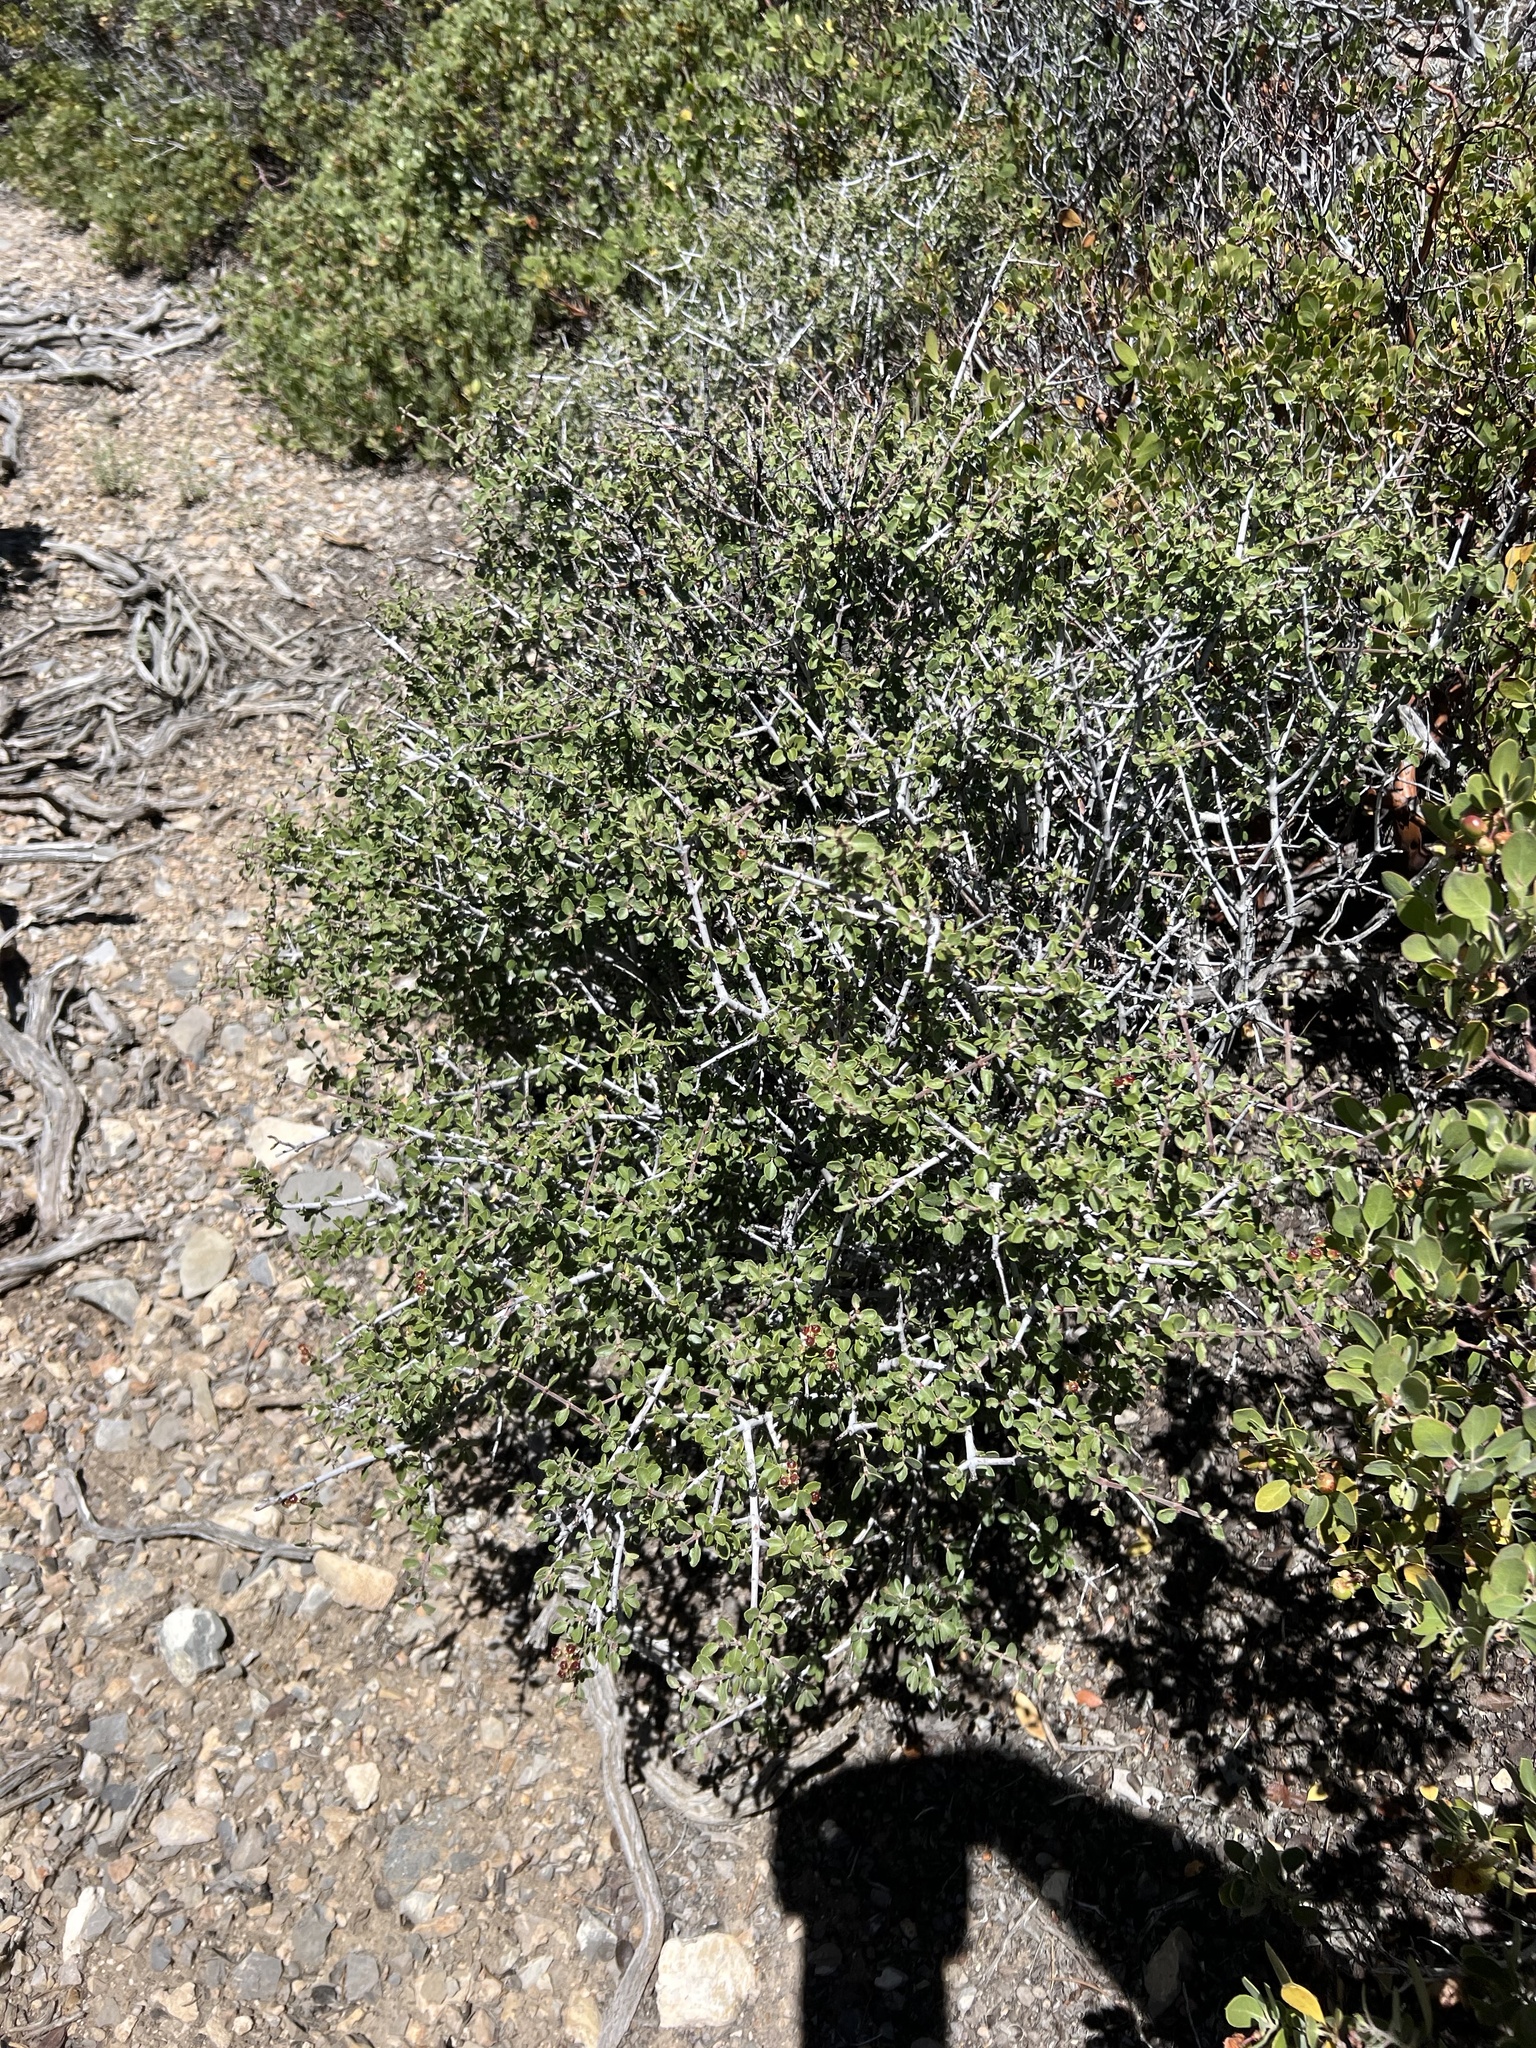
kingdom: Plantae
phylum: Tracheophyta
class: Magnoliopsida
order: Rosales
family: Rhamnaceae
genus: Ceanothus
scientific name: Ceanothus pauciflorus
